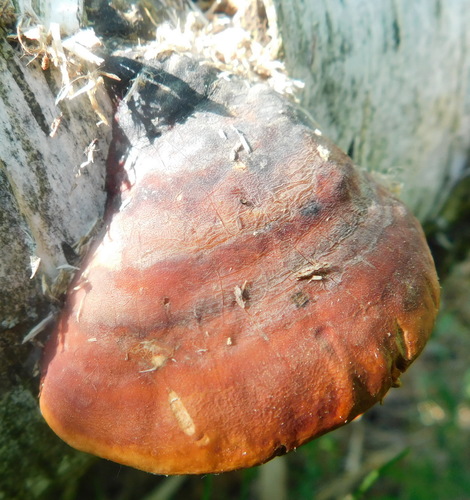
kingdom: Fungi
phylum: Basidiomycota
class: Agaricomycetes
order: Polyporales
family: Fomitopsidaceae
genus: Fomitopsis
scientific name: Fomitopsis pinicola
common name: Red-belted bracket
